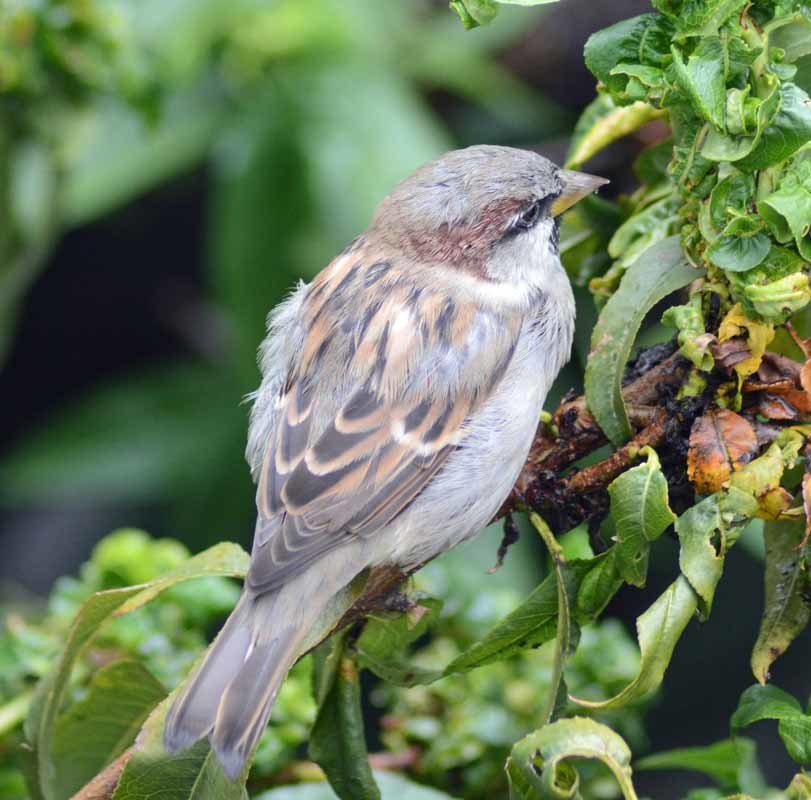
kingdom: Animalia
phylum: Chordata
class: Aves
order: Passeriformes
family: Passeridae
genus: Passer
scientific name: Passer domesticus
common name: House sparrow
